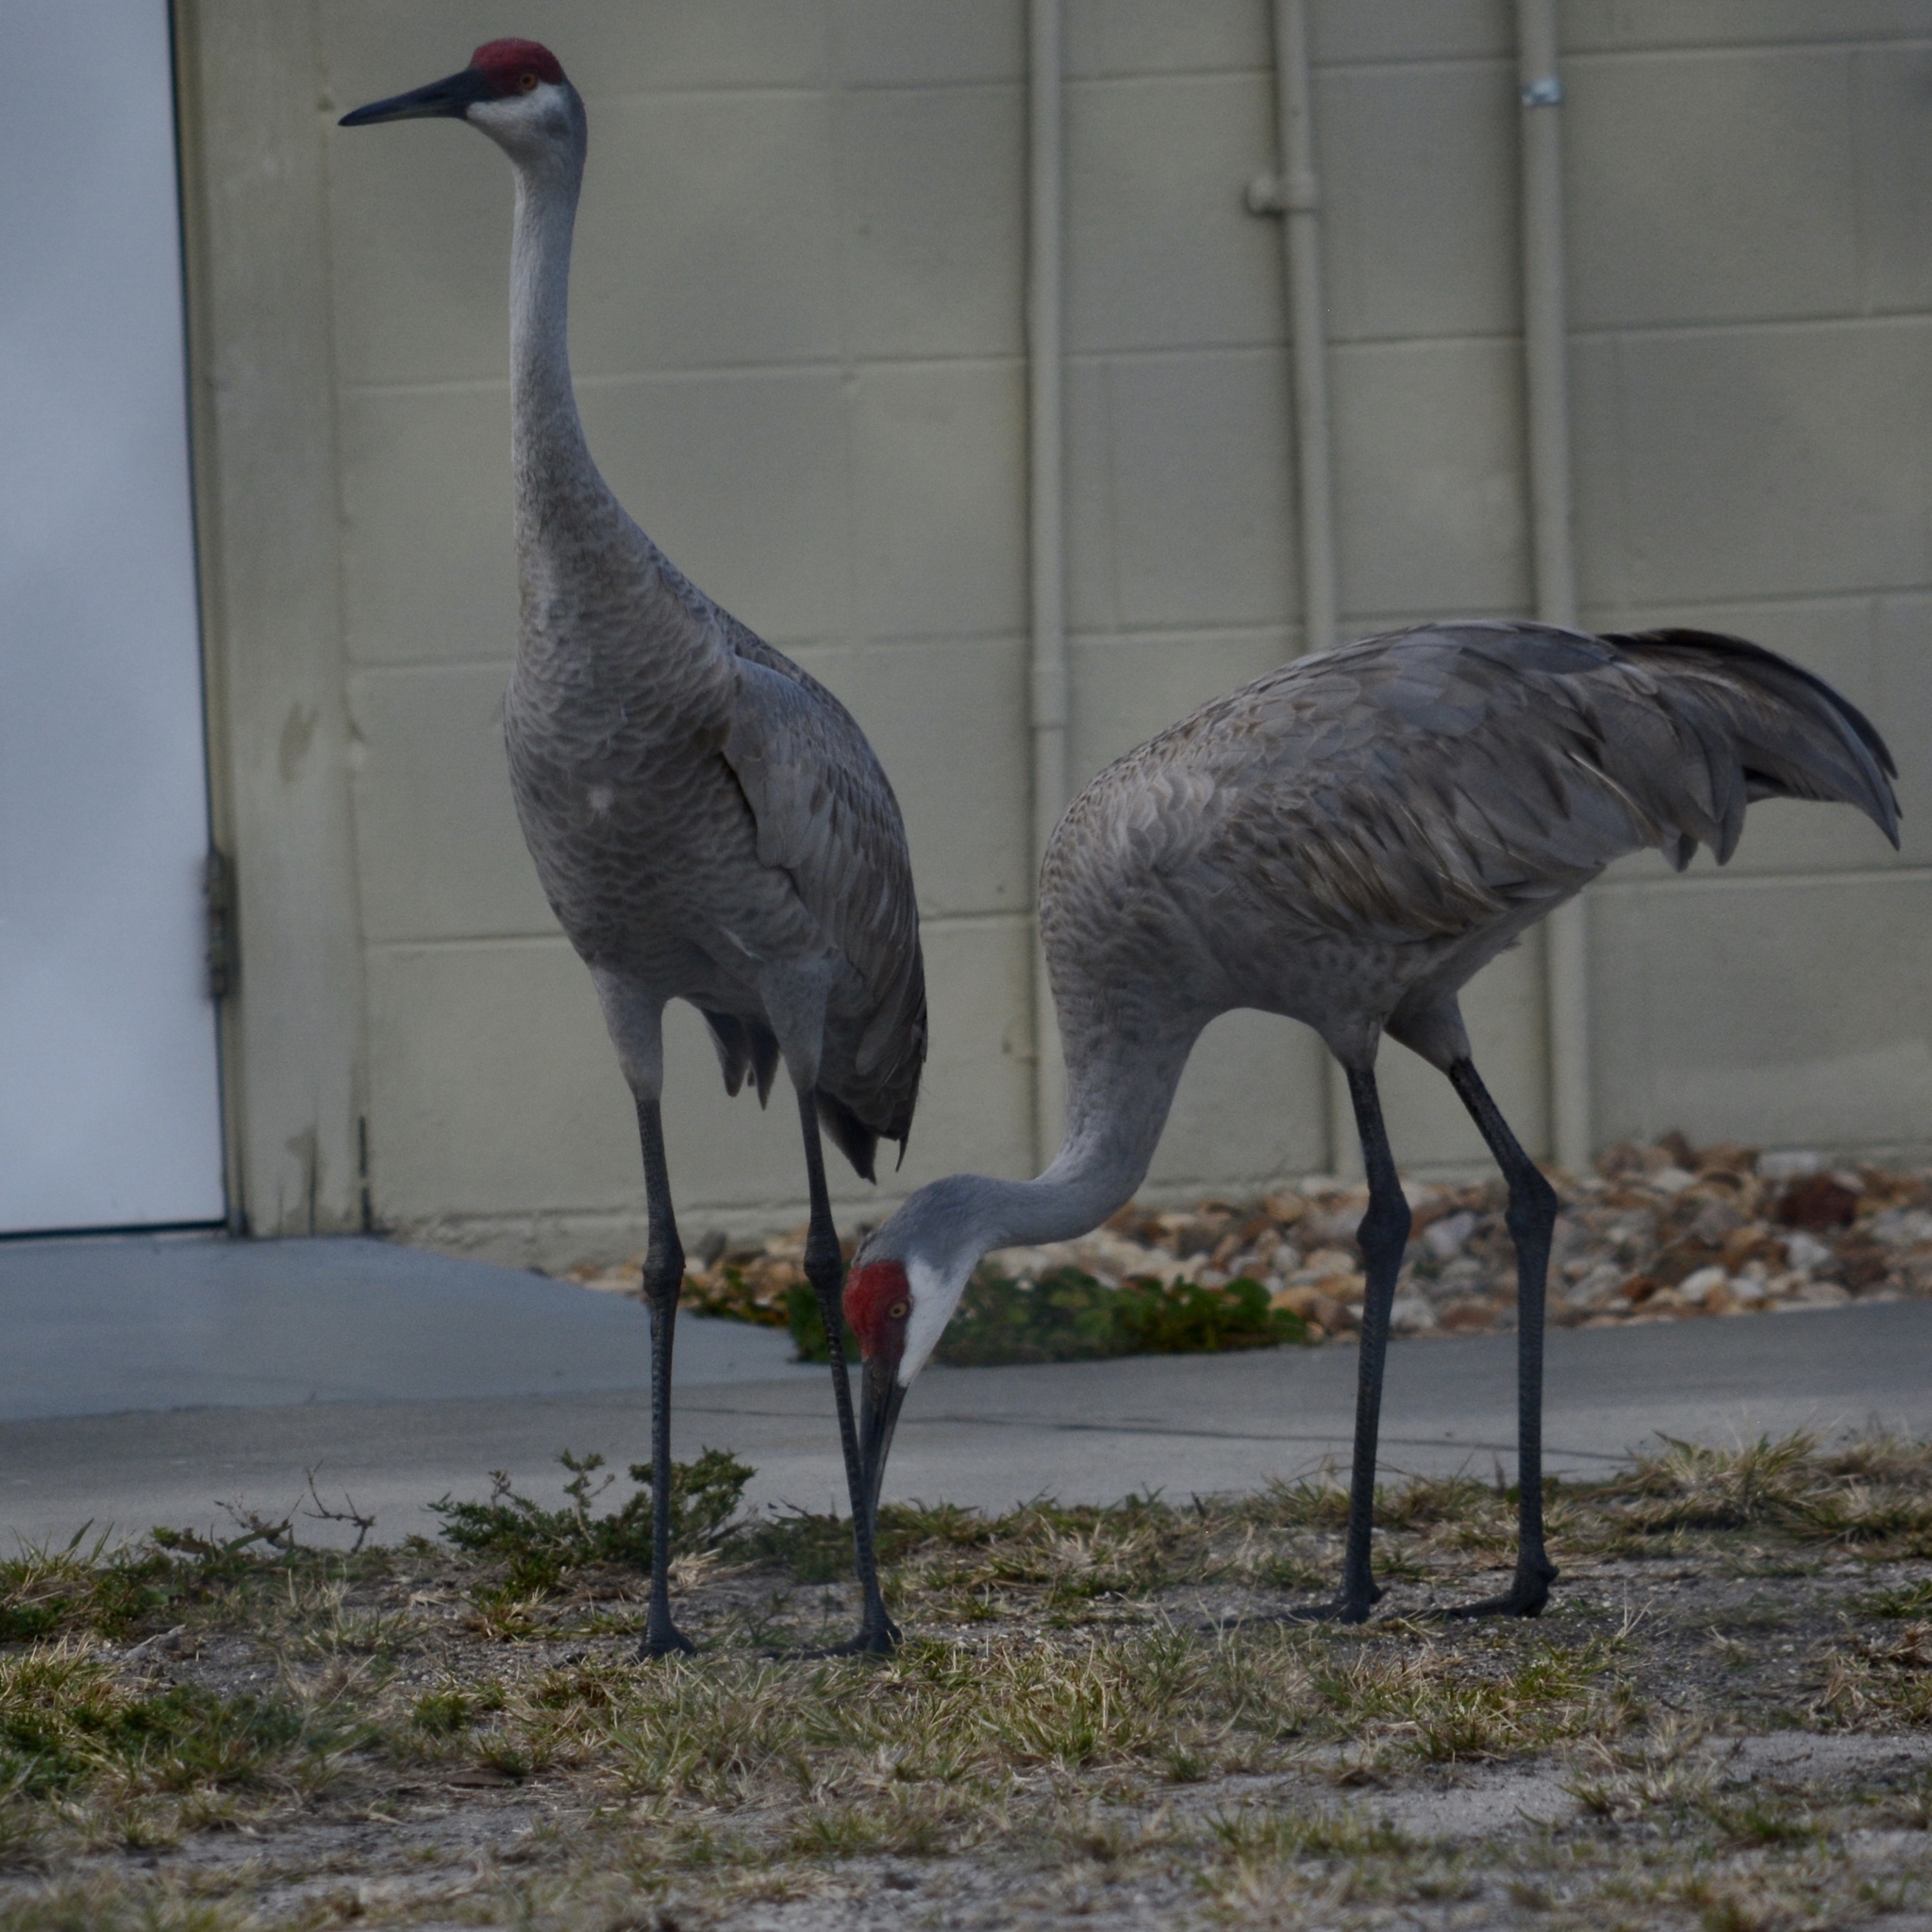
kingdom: Animalia
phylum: Chordata
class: Aves
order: Gruiformes
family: Gruidae
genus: Grus
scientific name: Grus canadensis
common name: Sandhill crane
